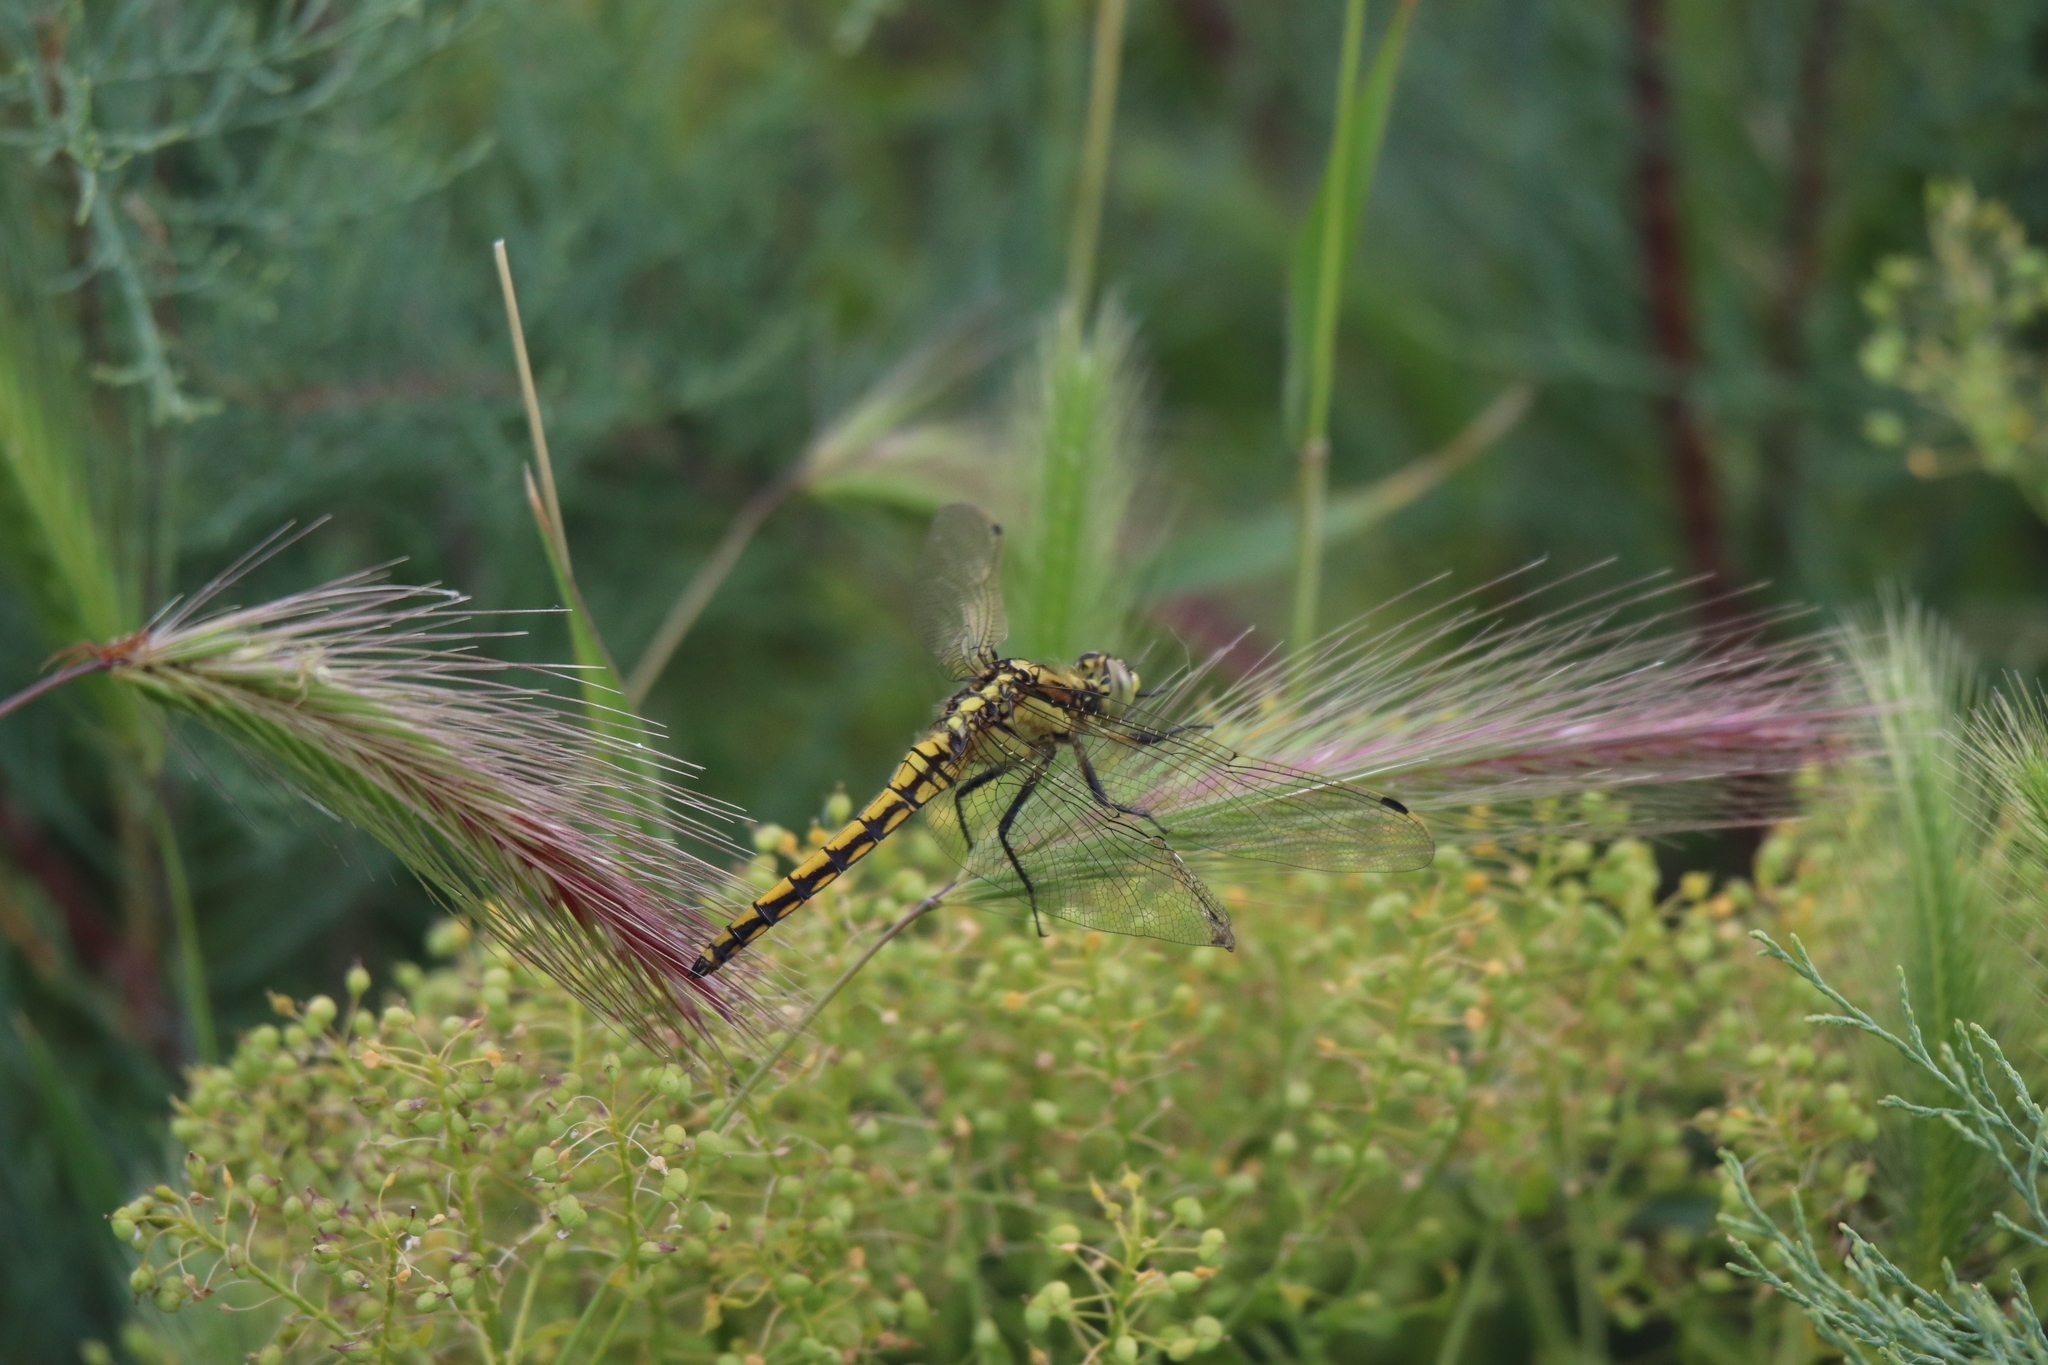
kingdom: Animalia
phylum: Arthropoda
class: Insecta
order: Odonata
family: Libellulidae
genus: Orthetrum
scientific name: Orthetrum cancellatum
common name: Black-tailed skimmer
